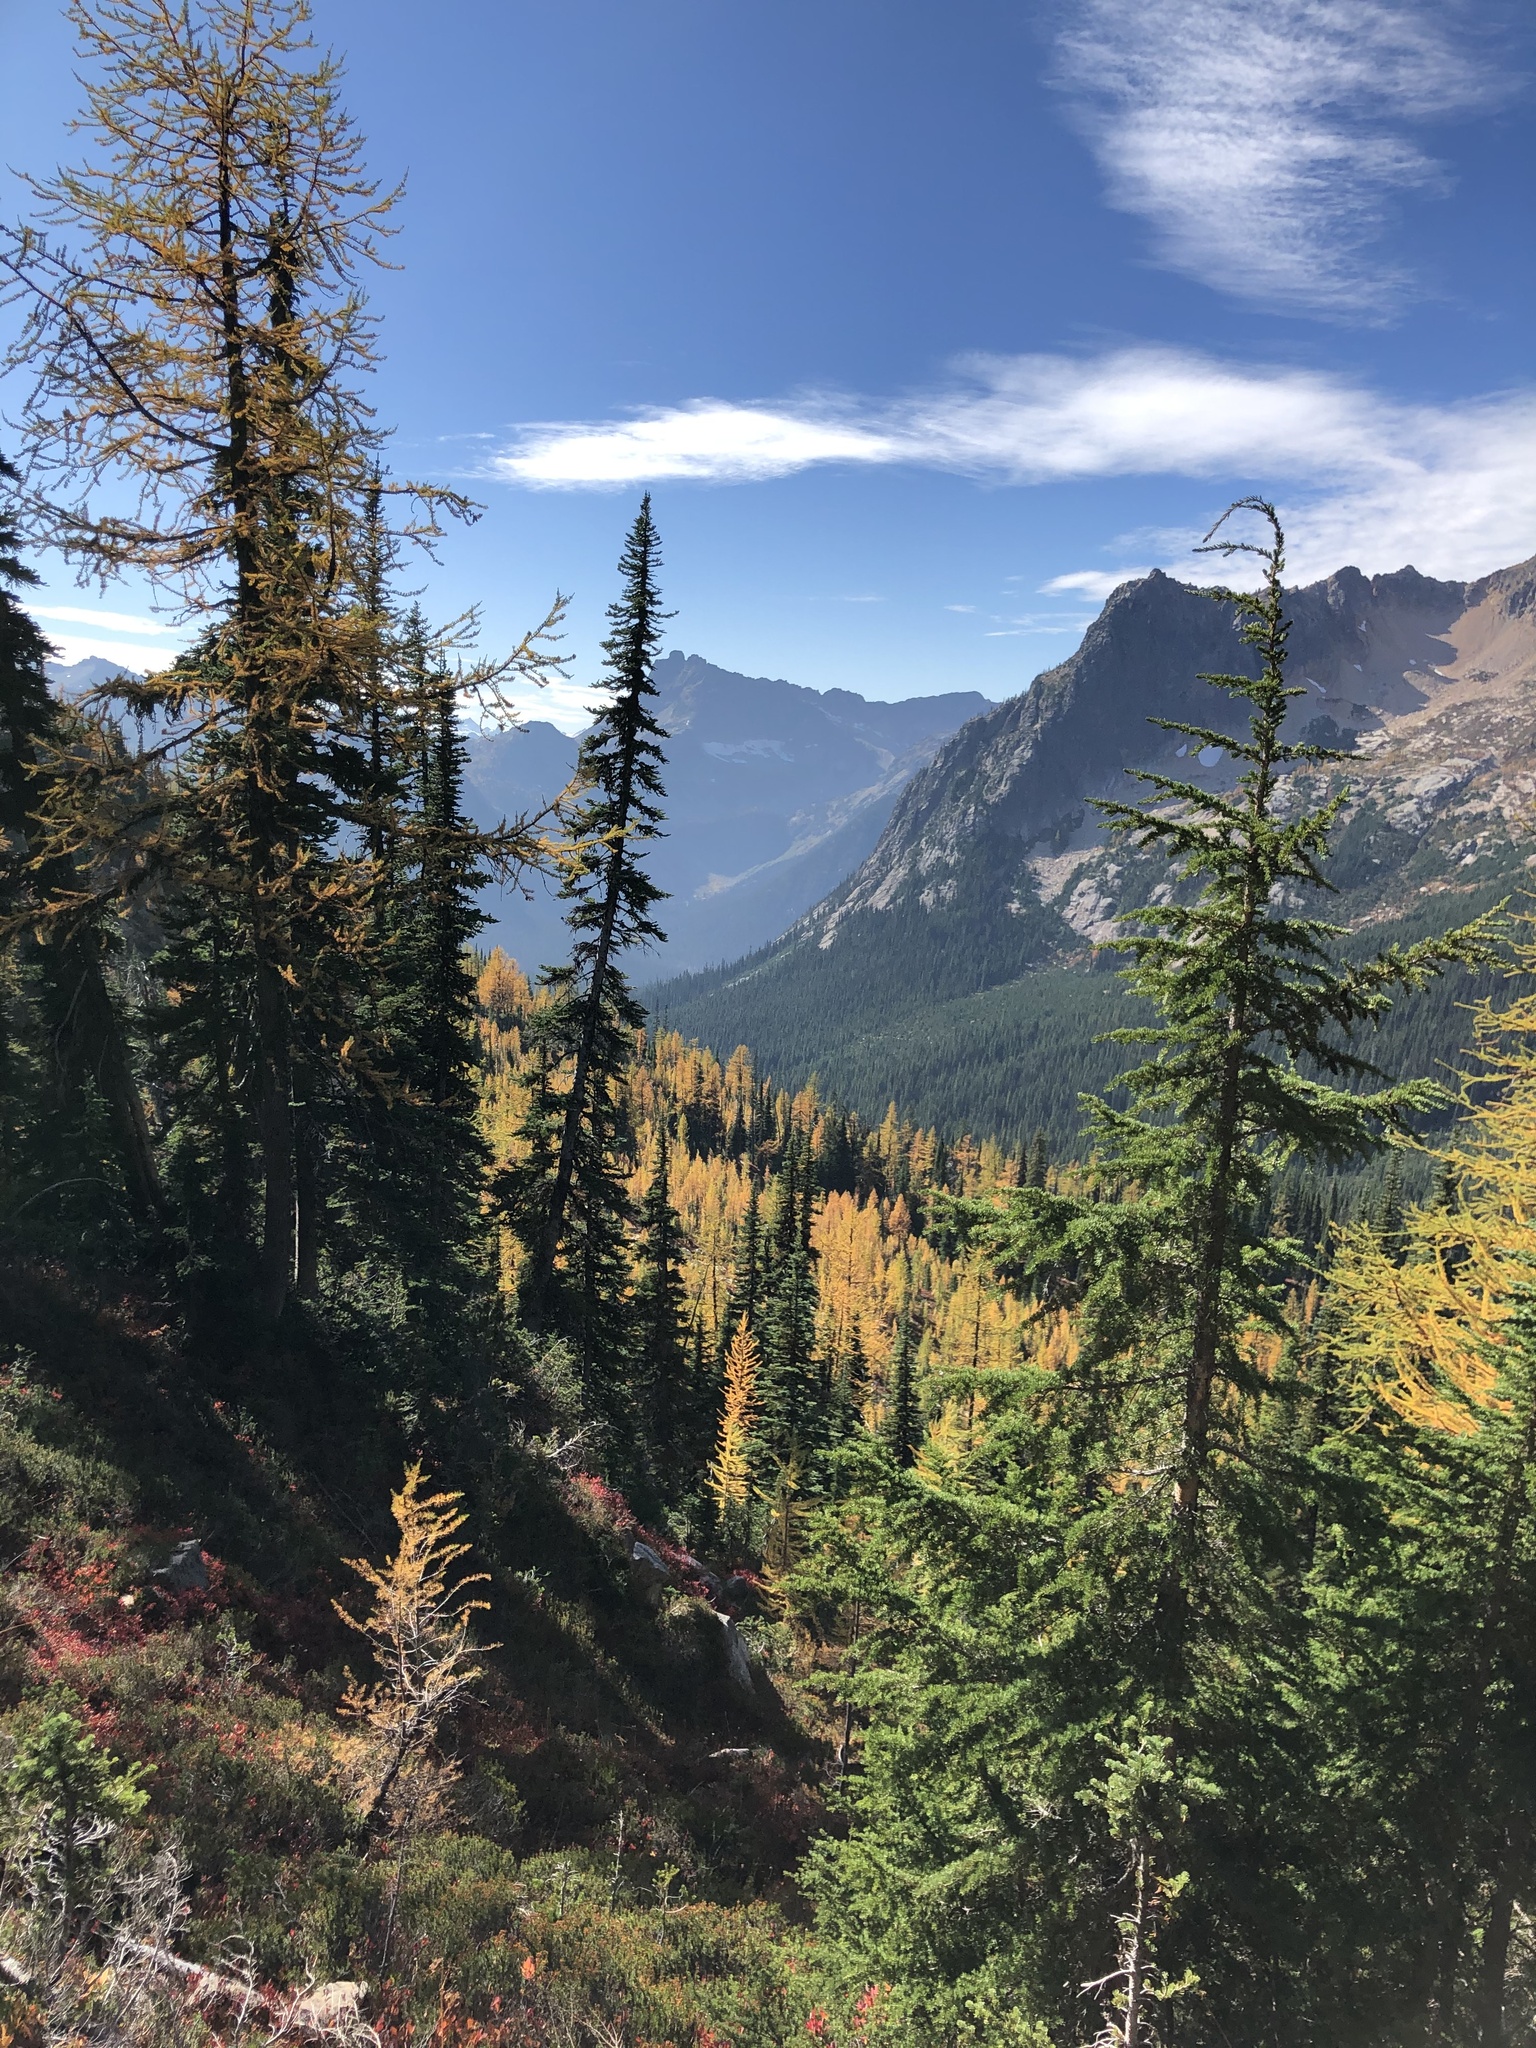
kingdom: Plantae
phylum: Tracheophyta
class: Pinopsida
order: Pinales
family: Pinaceae
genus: Larix
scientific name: Larix lyallii
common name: Alpine larch
